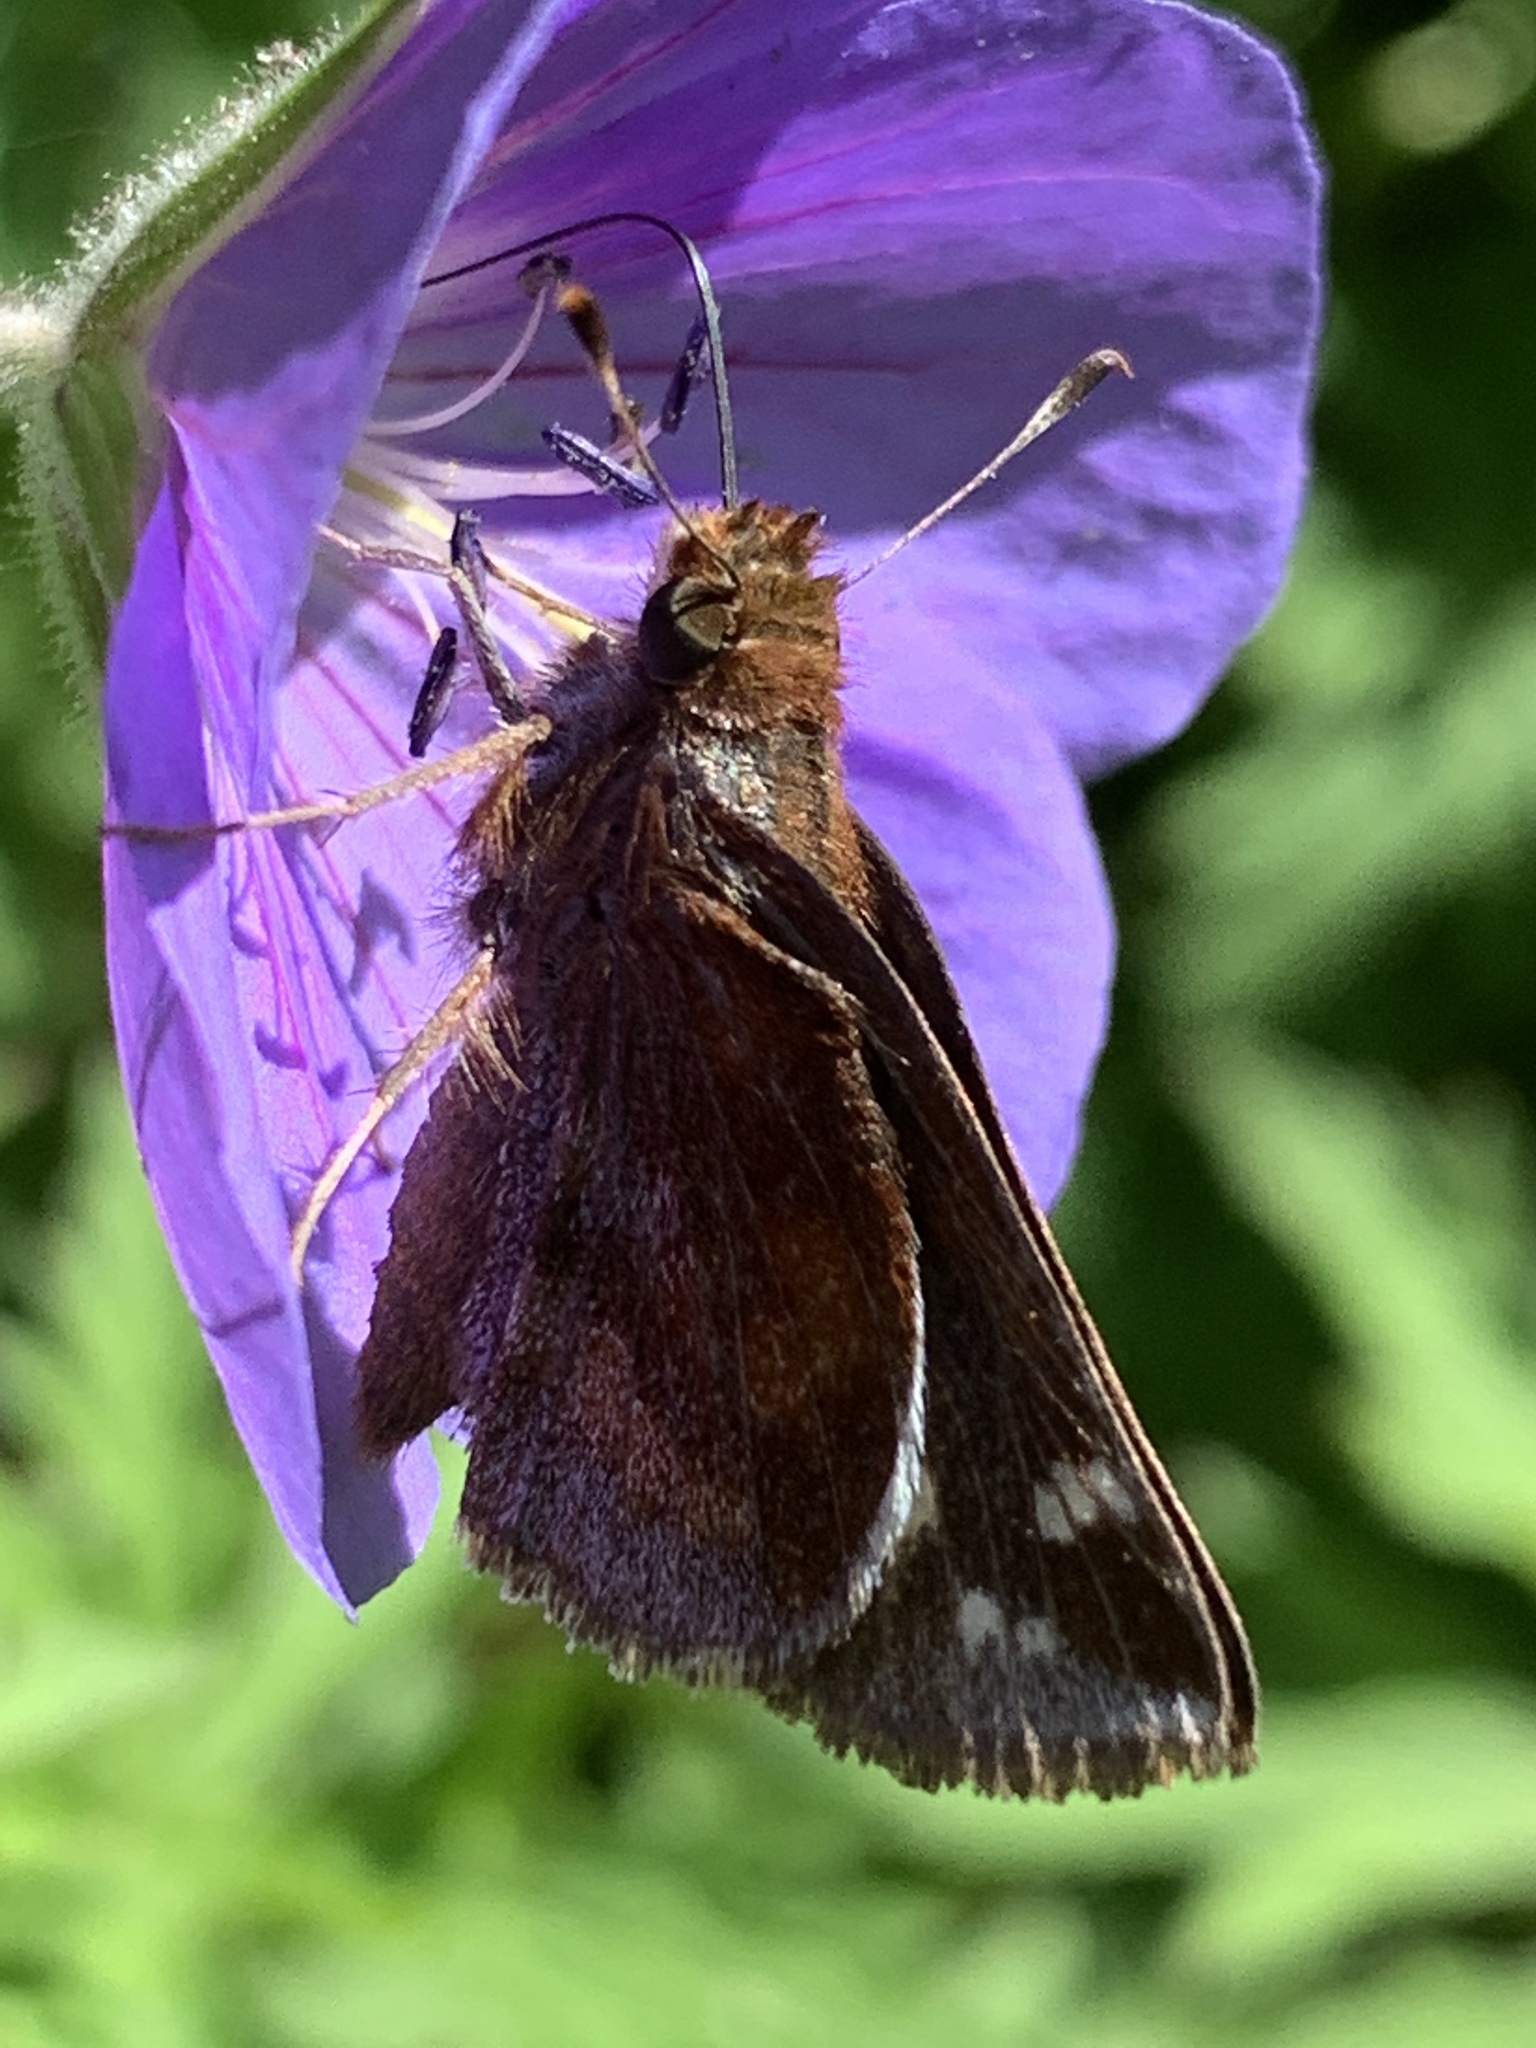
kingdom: Animalia
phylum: Arthropoda
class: Insecta
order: Lepidoptera
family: Hesperiidae
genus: Lon
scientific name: Lon zabulon
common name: Zabulon skipper
